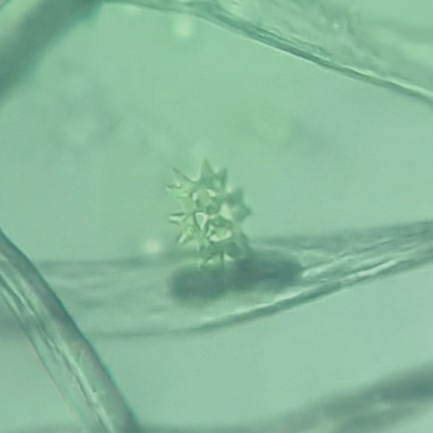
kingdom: Plantae
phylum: Chlorophyta
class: Chlorophyceae
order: Sphaeropleales
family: Hydrodictyaceae
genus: Pediastrum
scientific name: Pediastrum duplex
